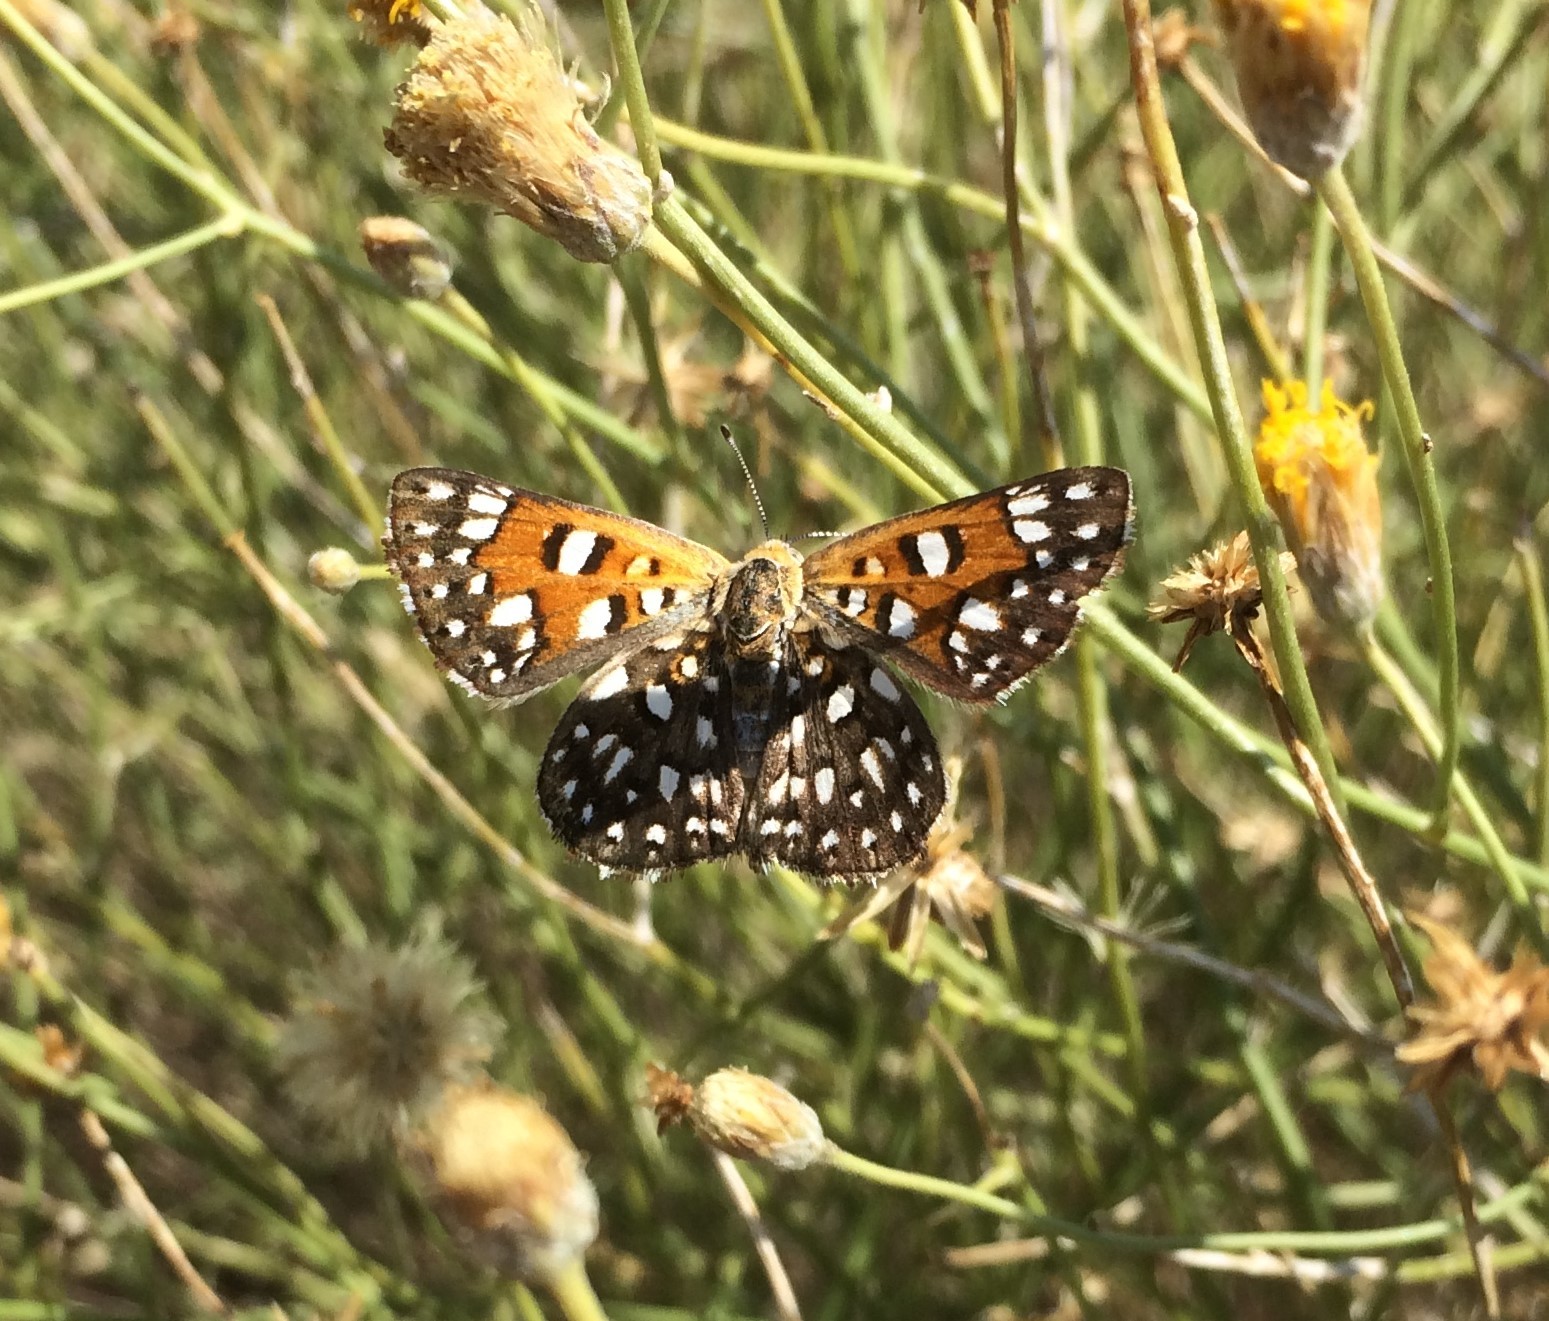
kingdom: Animalia
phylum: Arthropoda
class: Insecta
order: Lepidoptera
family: Riodinidae
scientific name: Riodinidae
